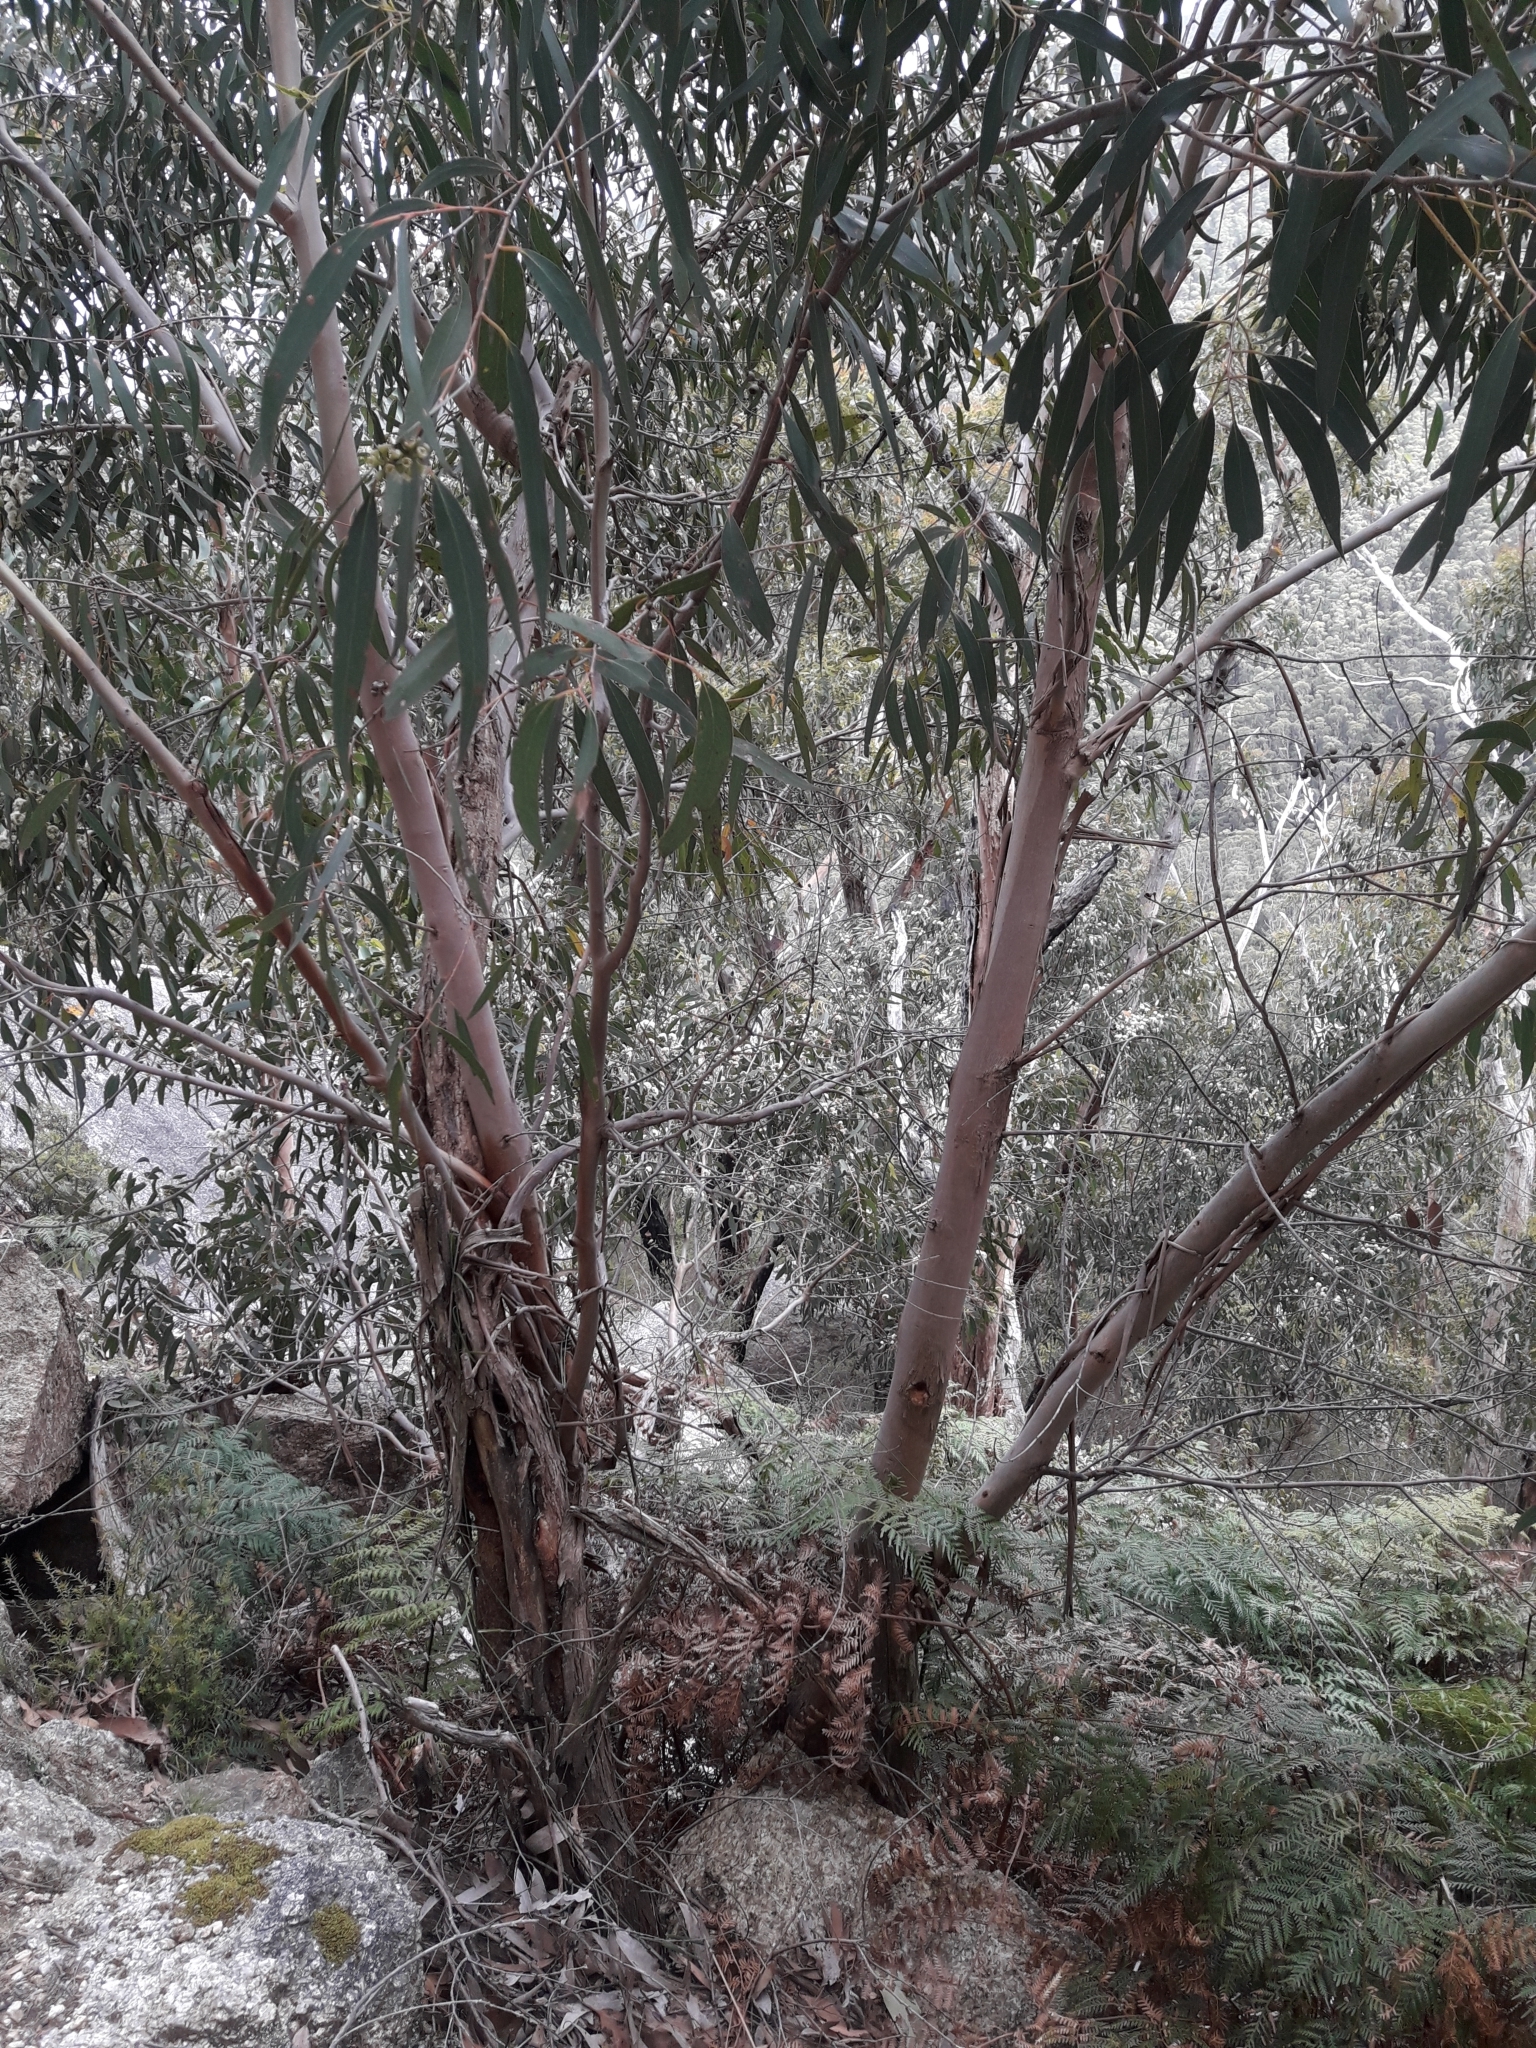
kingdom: Plantae
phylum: Tracheophyta
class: Magnoliopsida
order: Myrtales
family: Myrtaceae
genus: Eucalyptus
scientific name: Eucalyptus willisii
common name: South gippsland peppermint
